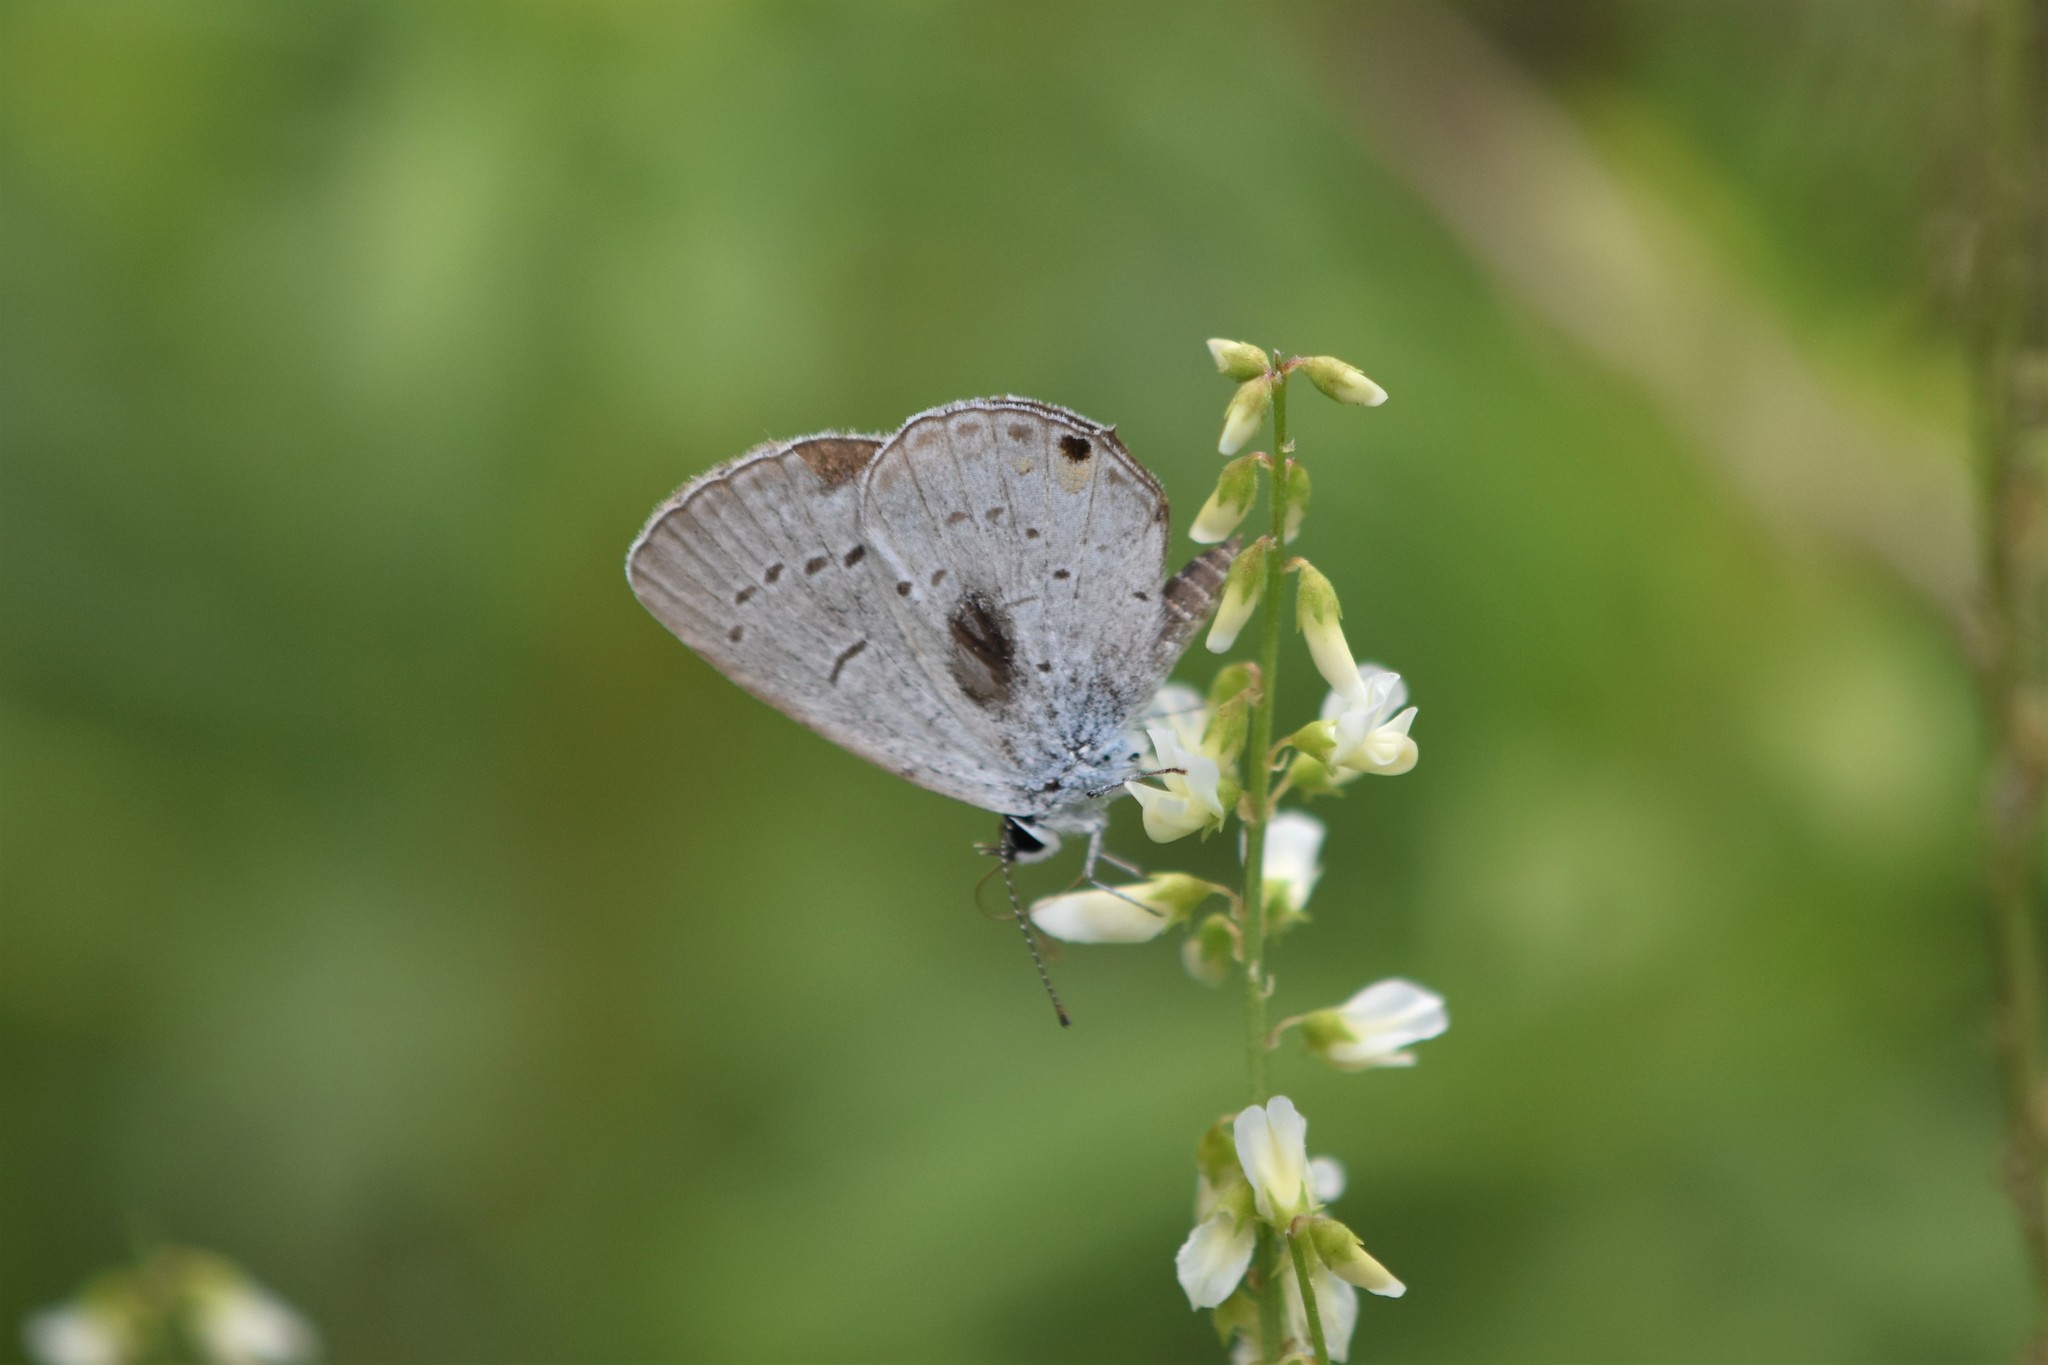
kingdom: Animalia
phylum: Arthropoda
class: Insecta
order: Lepidoptera
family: Lycaenidae
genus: Elkalyce
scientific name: Elkalyce comyntas
